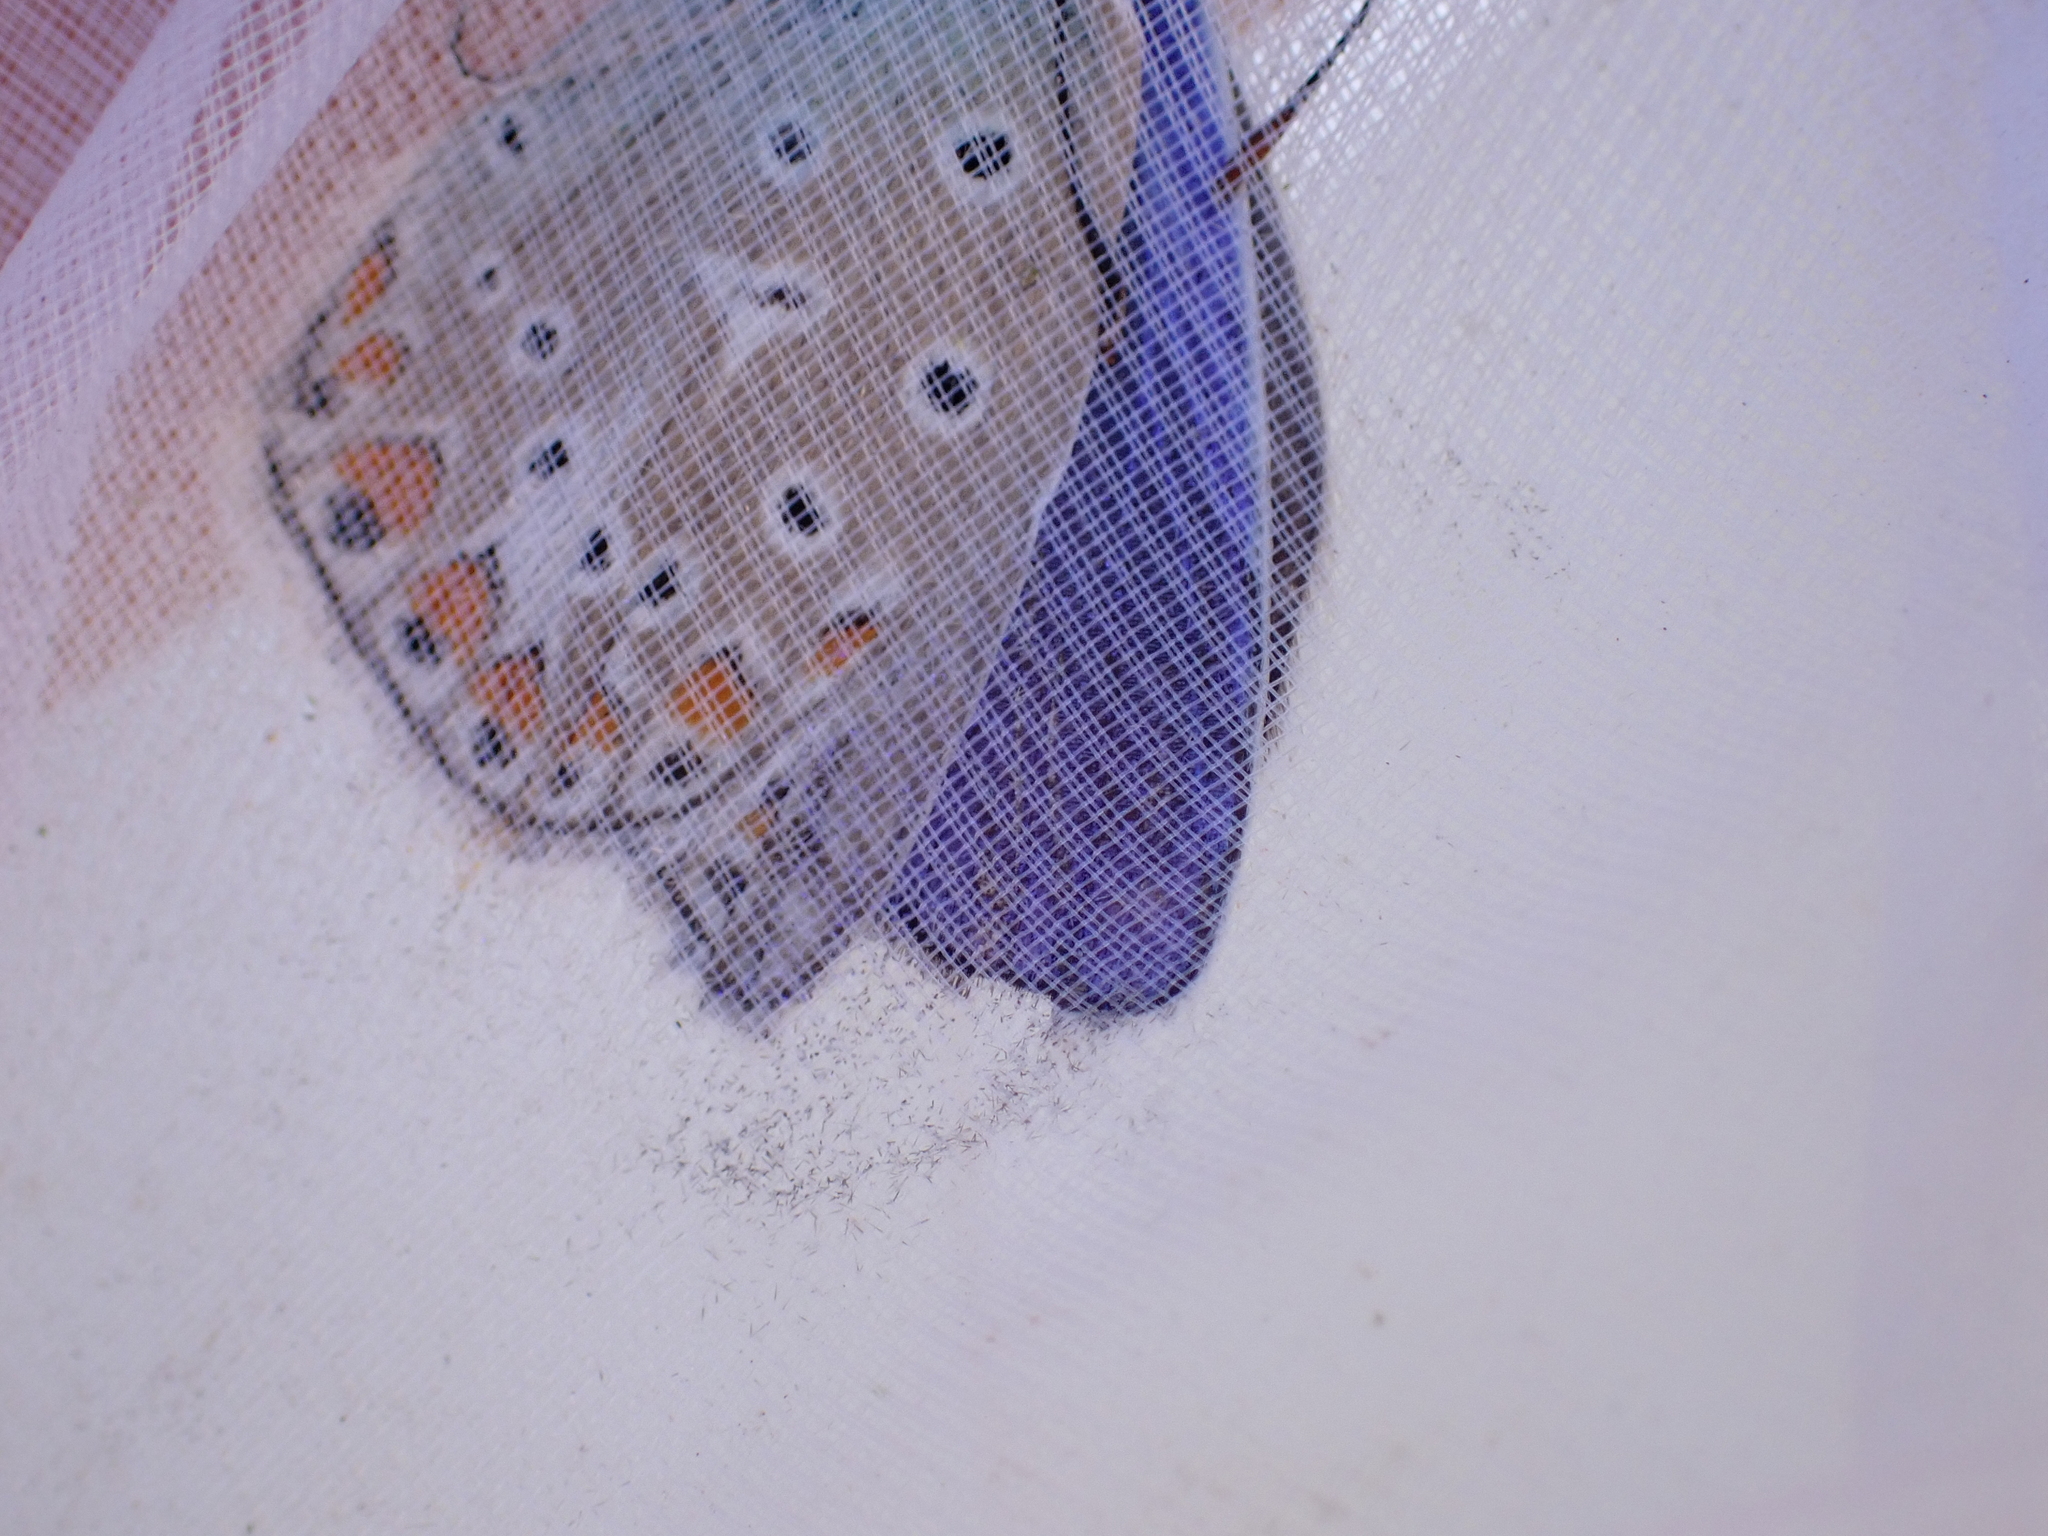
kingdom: Animalia
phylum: Arthropoda
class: Insecta
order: Lepidoptera
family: Lycaenidae
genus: Polyommatus
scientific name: Polyommatus icarus
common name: Common blue
